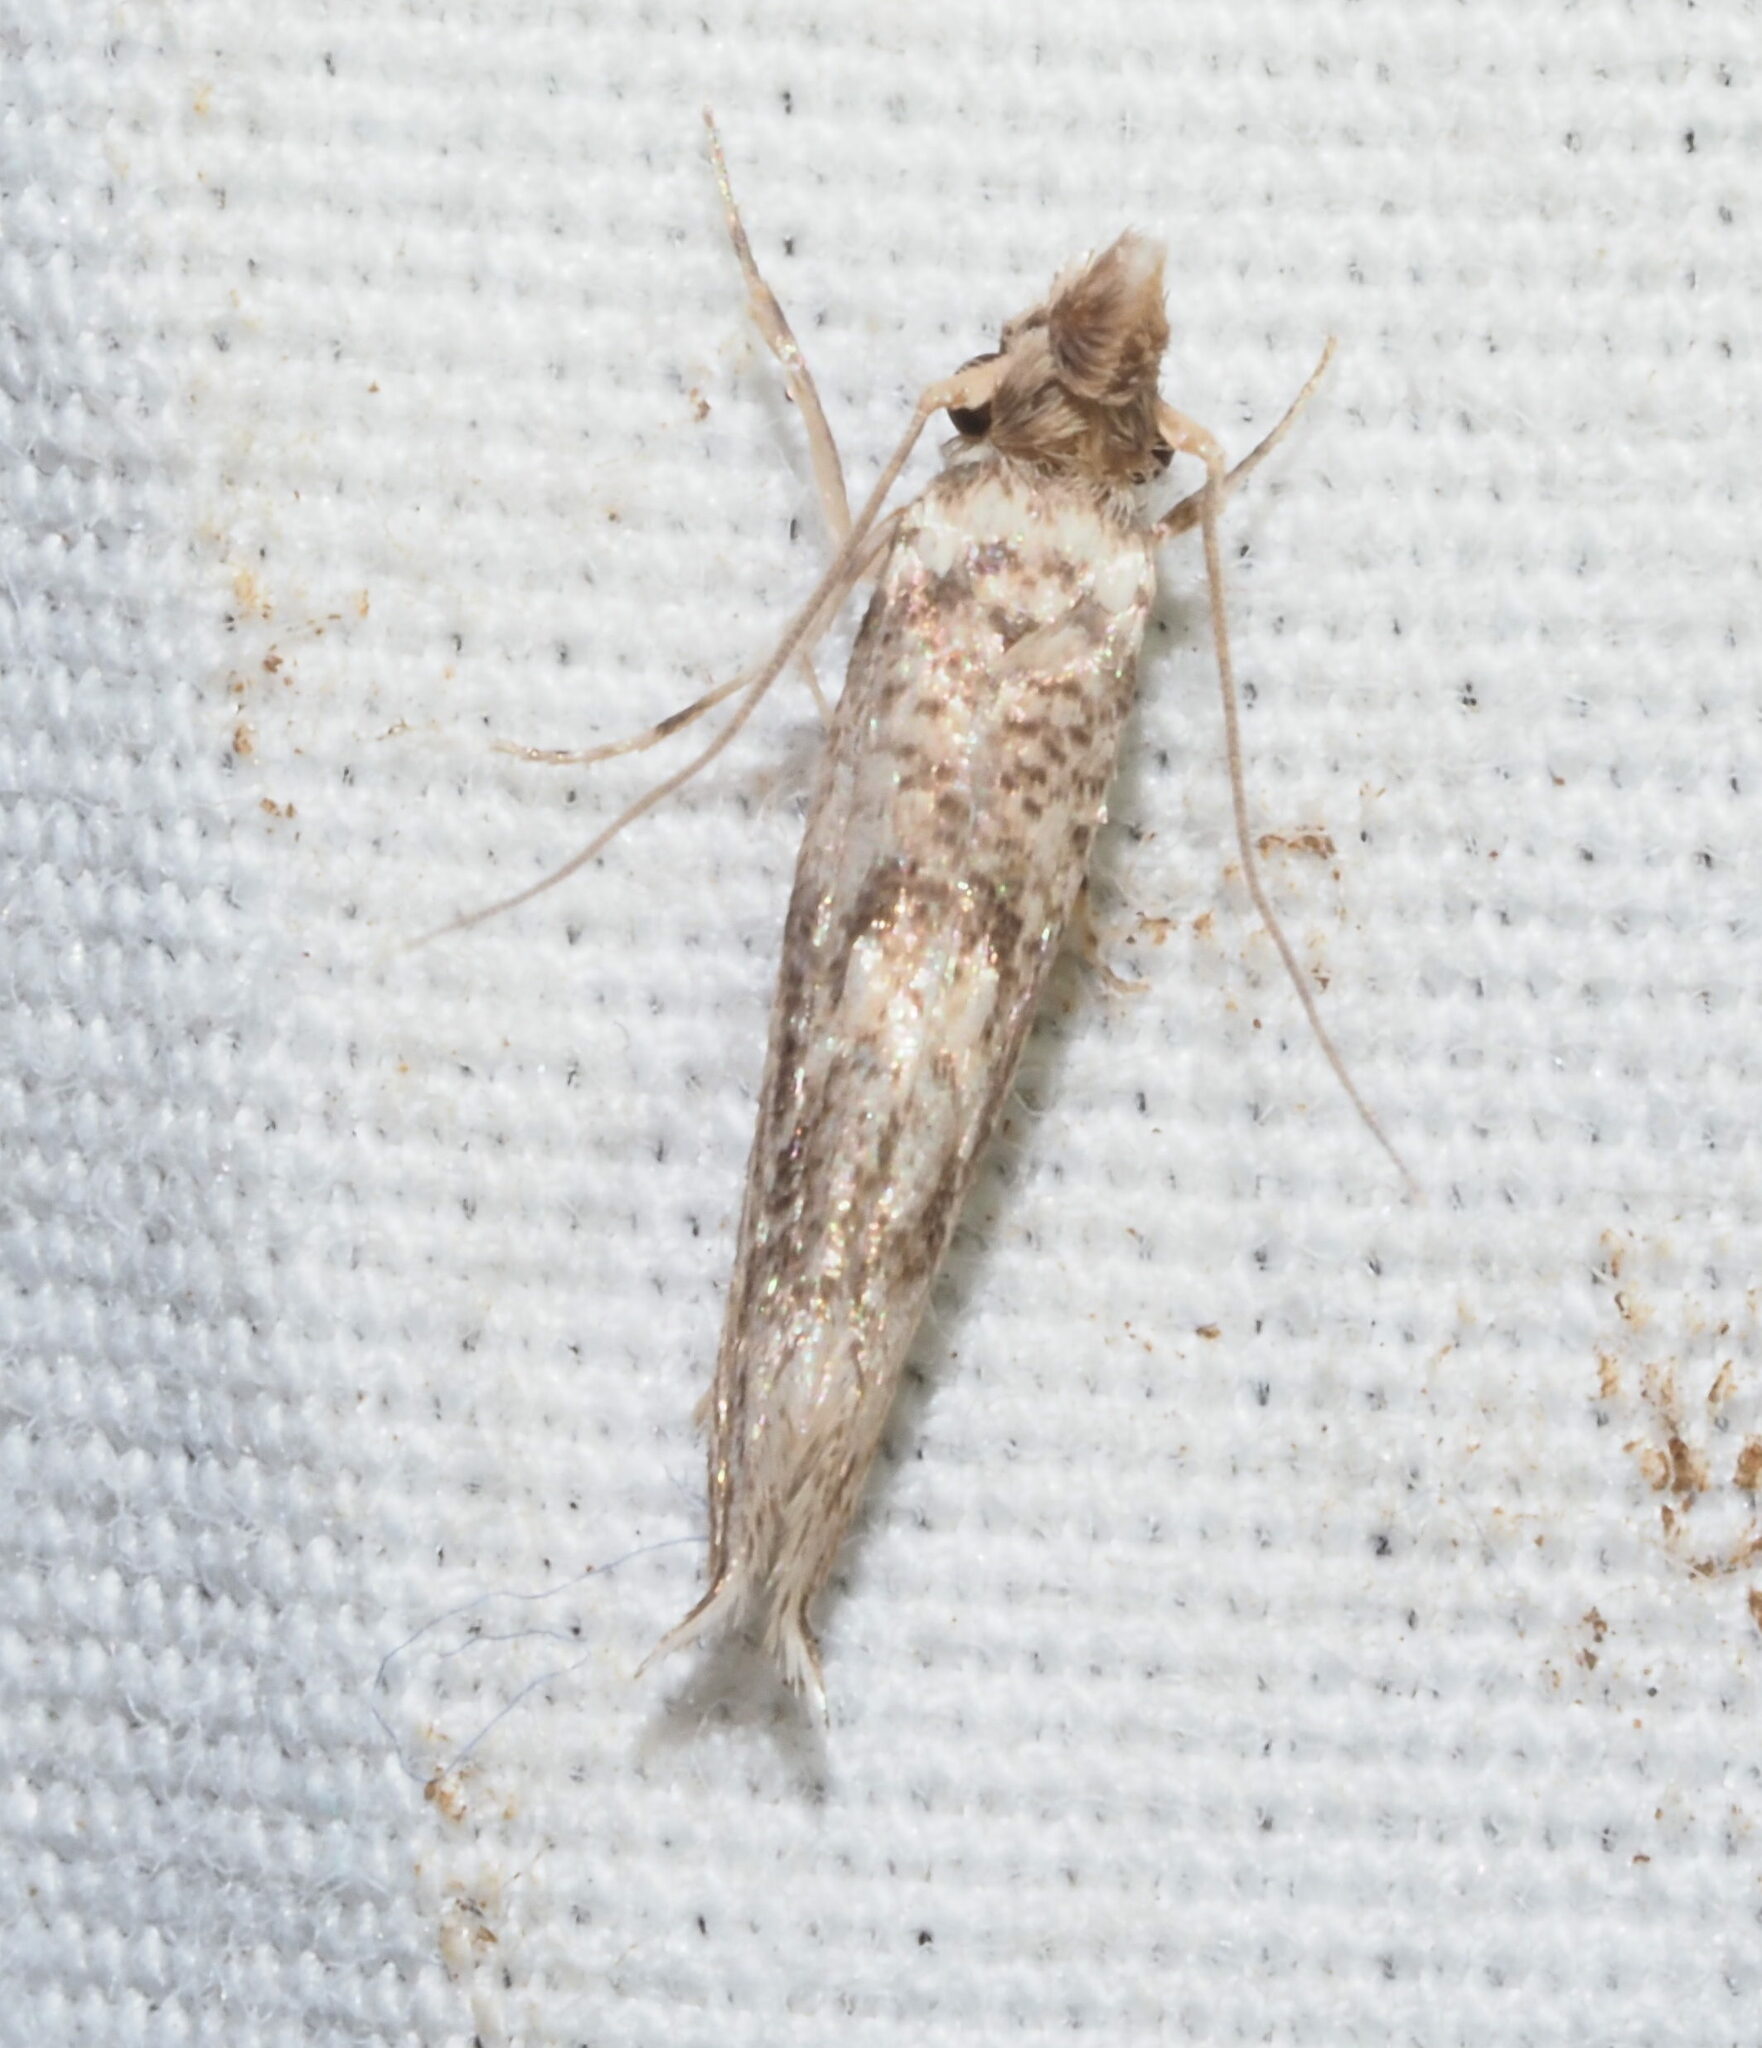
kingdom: Animalia
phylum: Arthropoda
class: Insecta
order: Lepidoptera
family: Tineidae
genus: Erechthias
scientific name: Erechthias pelotricha
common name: Fungus moth
